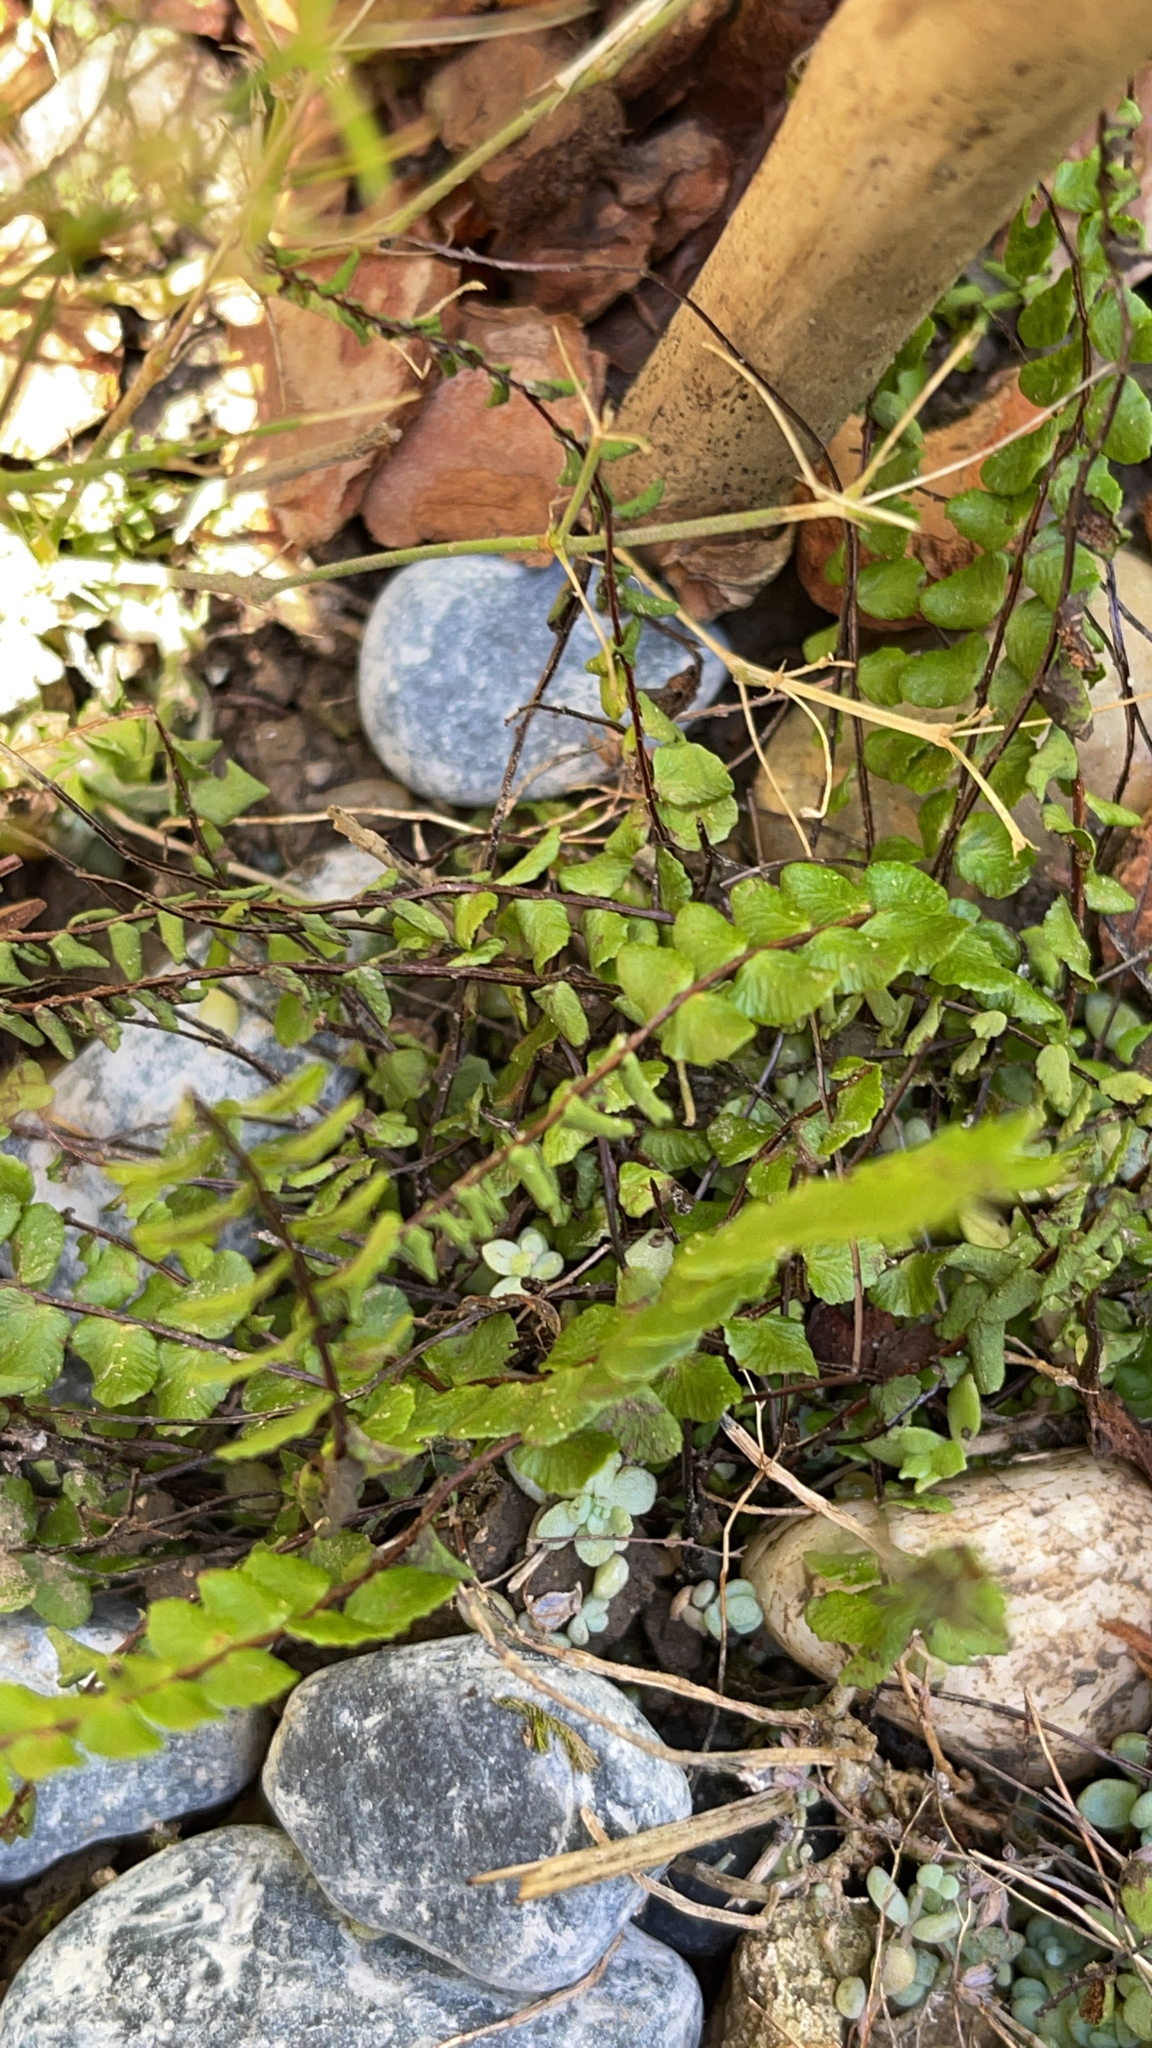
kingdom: Plantae
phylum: Tracheophyta
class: Polypodiopsida
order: Polypodiales
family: Aspleniaceae
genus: Asplenium
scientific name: Asplenium trichomanes
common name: Maidenhair spleenwort
